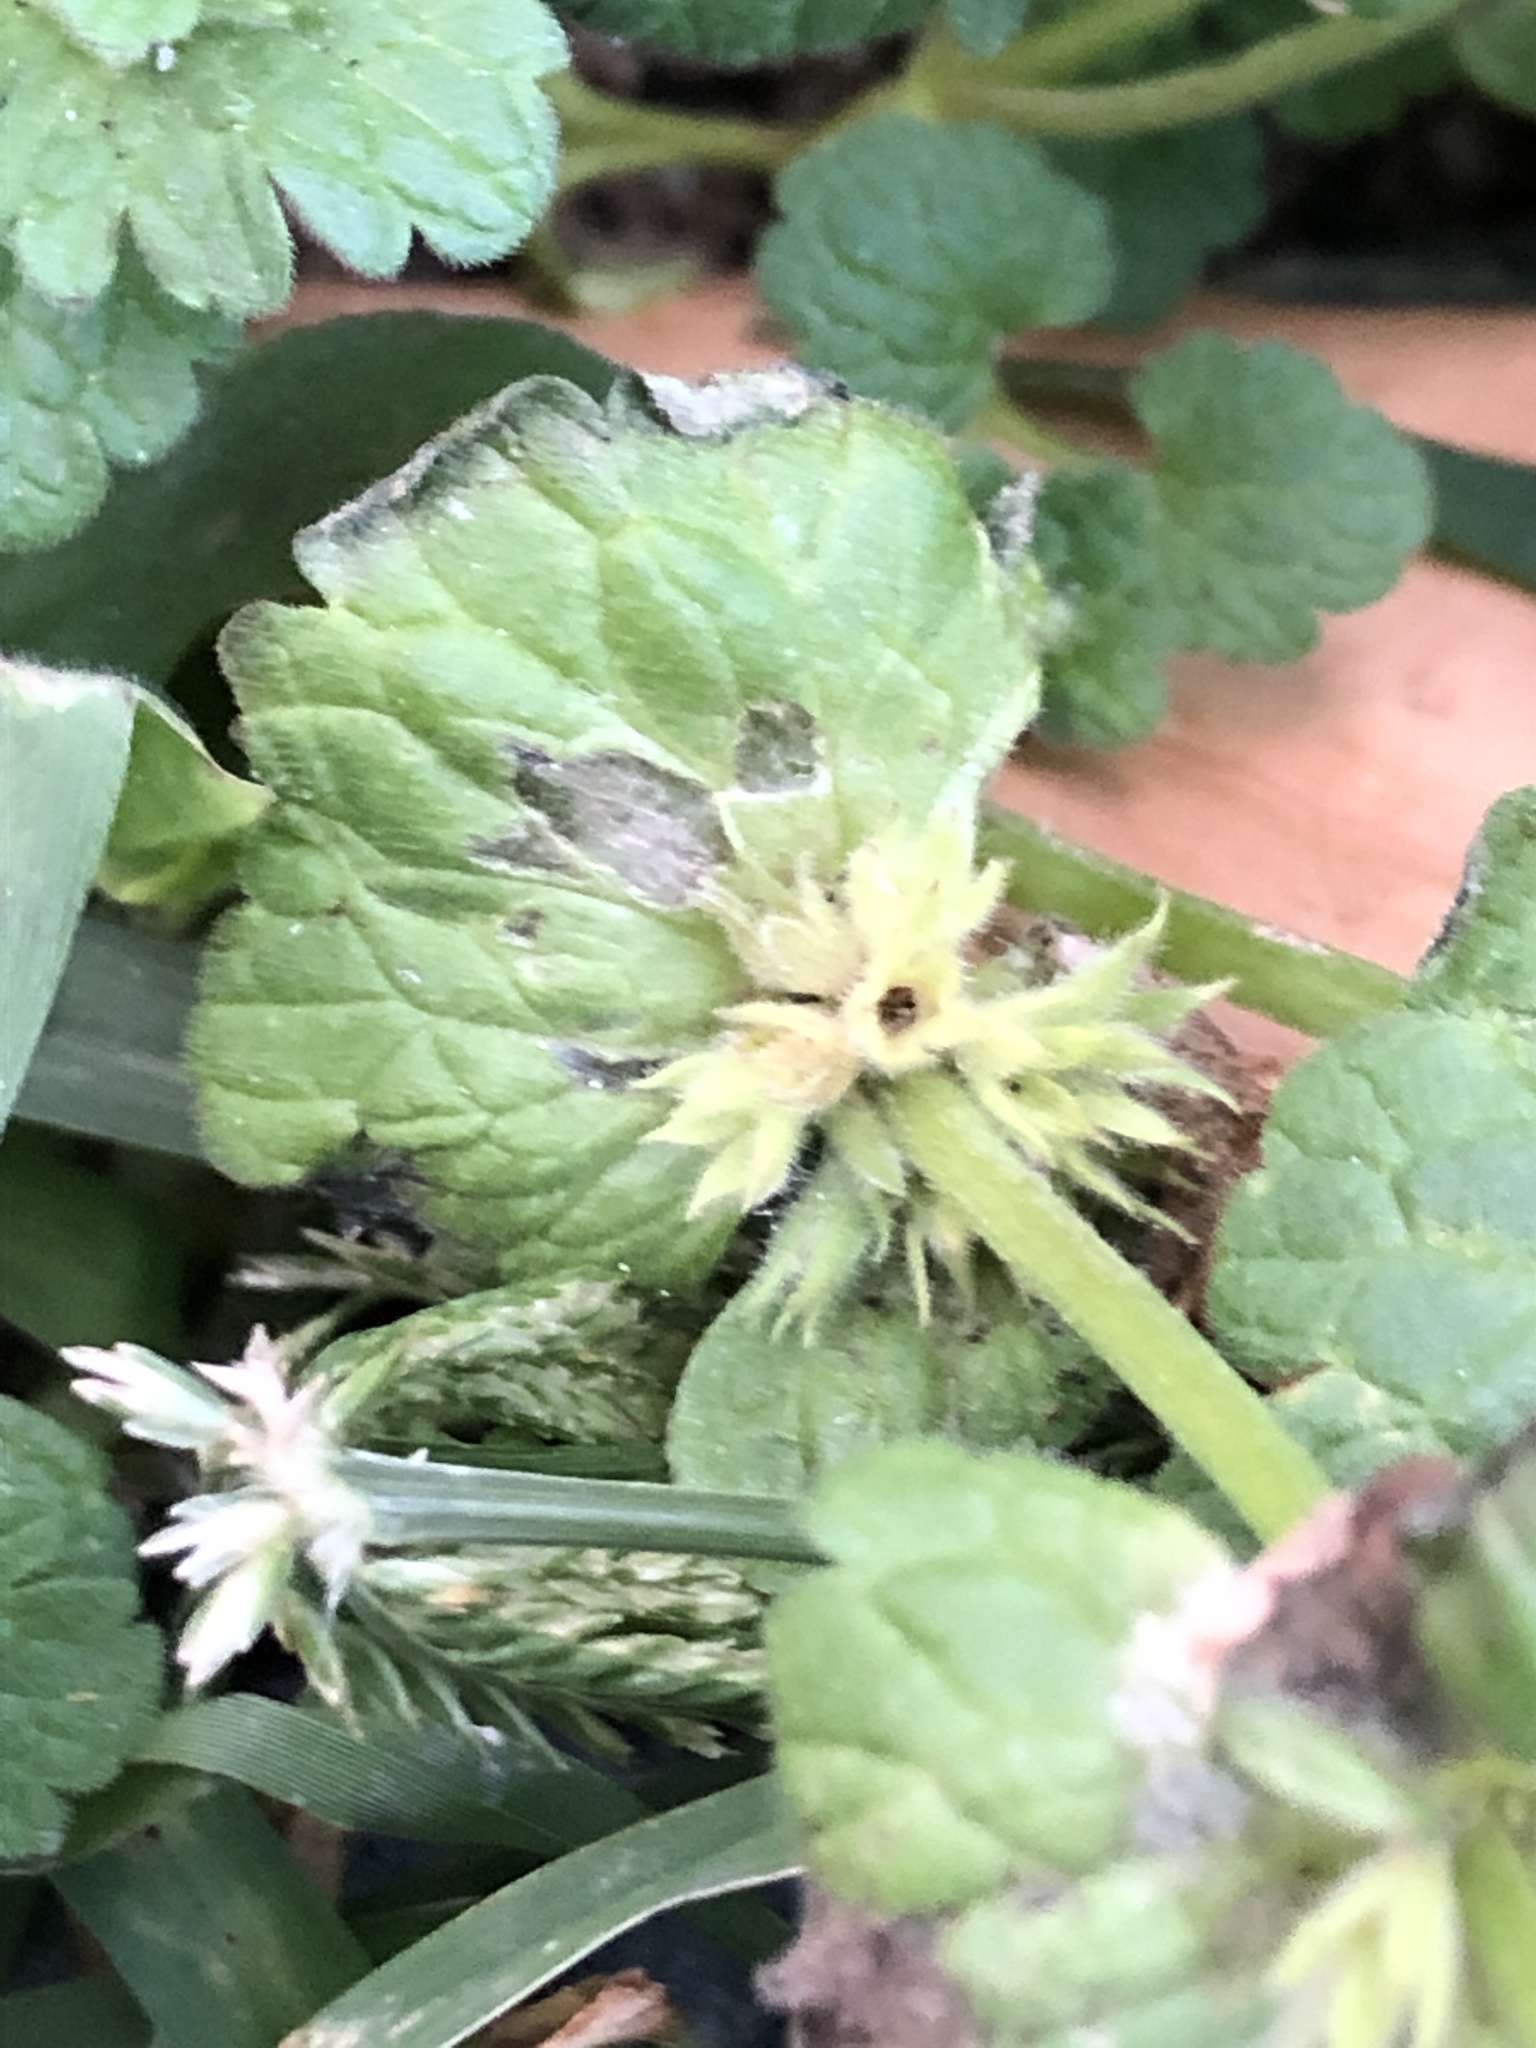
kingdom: Plantae
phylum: Tracheophyta
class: Magnoliopsida
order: Lamiales
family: Lamiaceae
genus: Lamium
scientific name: Lamium amplexicaule
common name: Henbit dead-nettle
